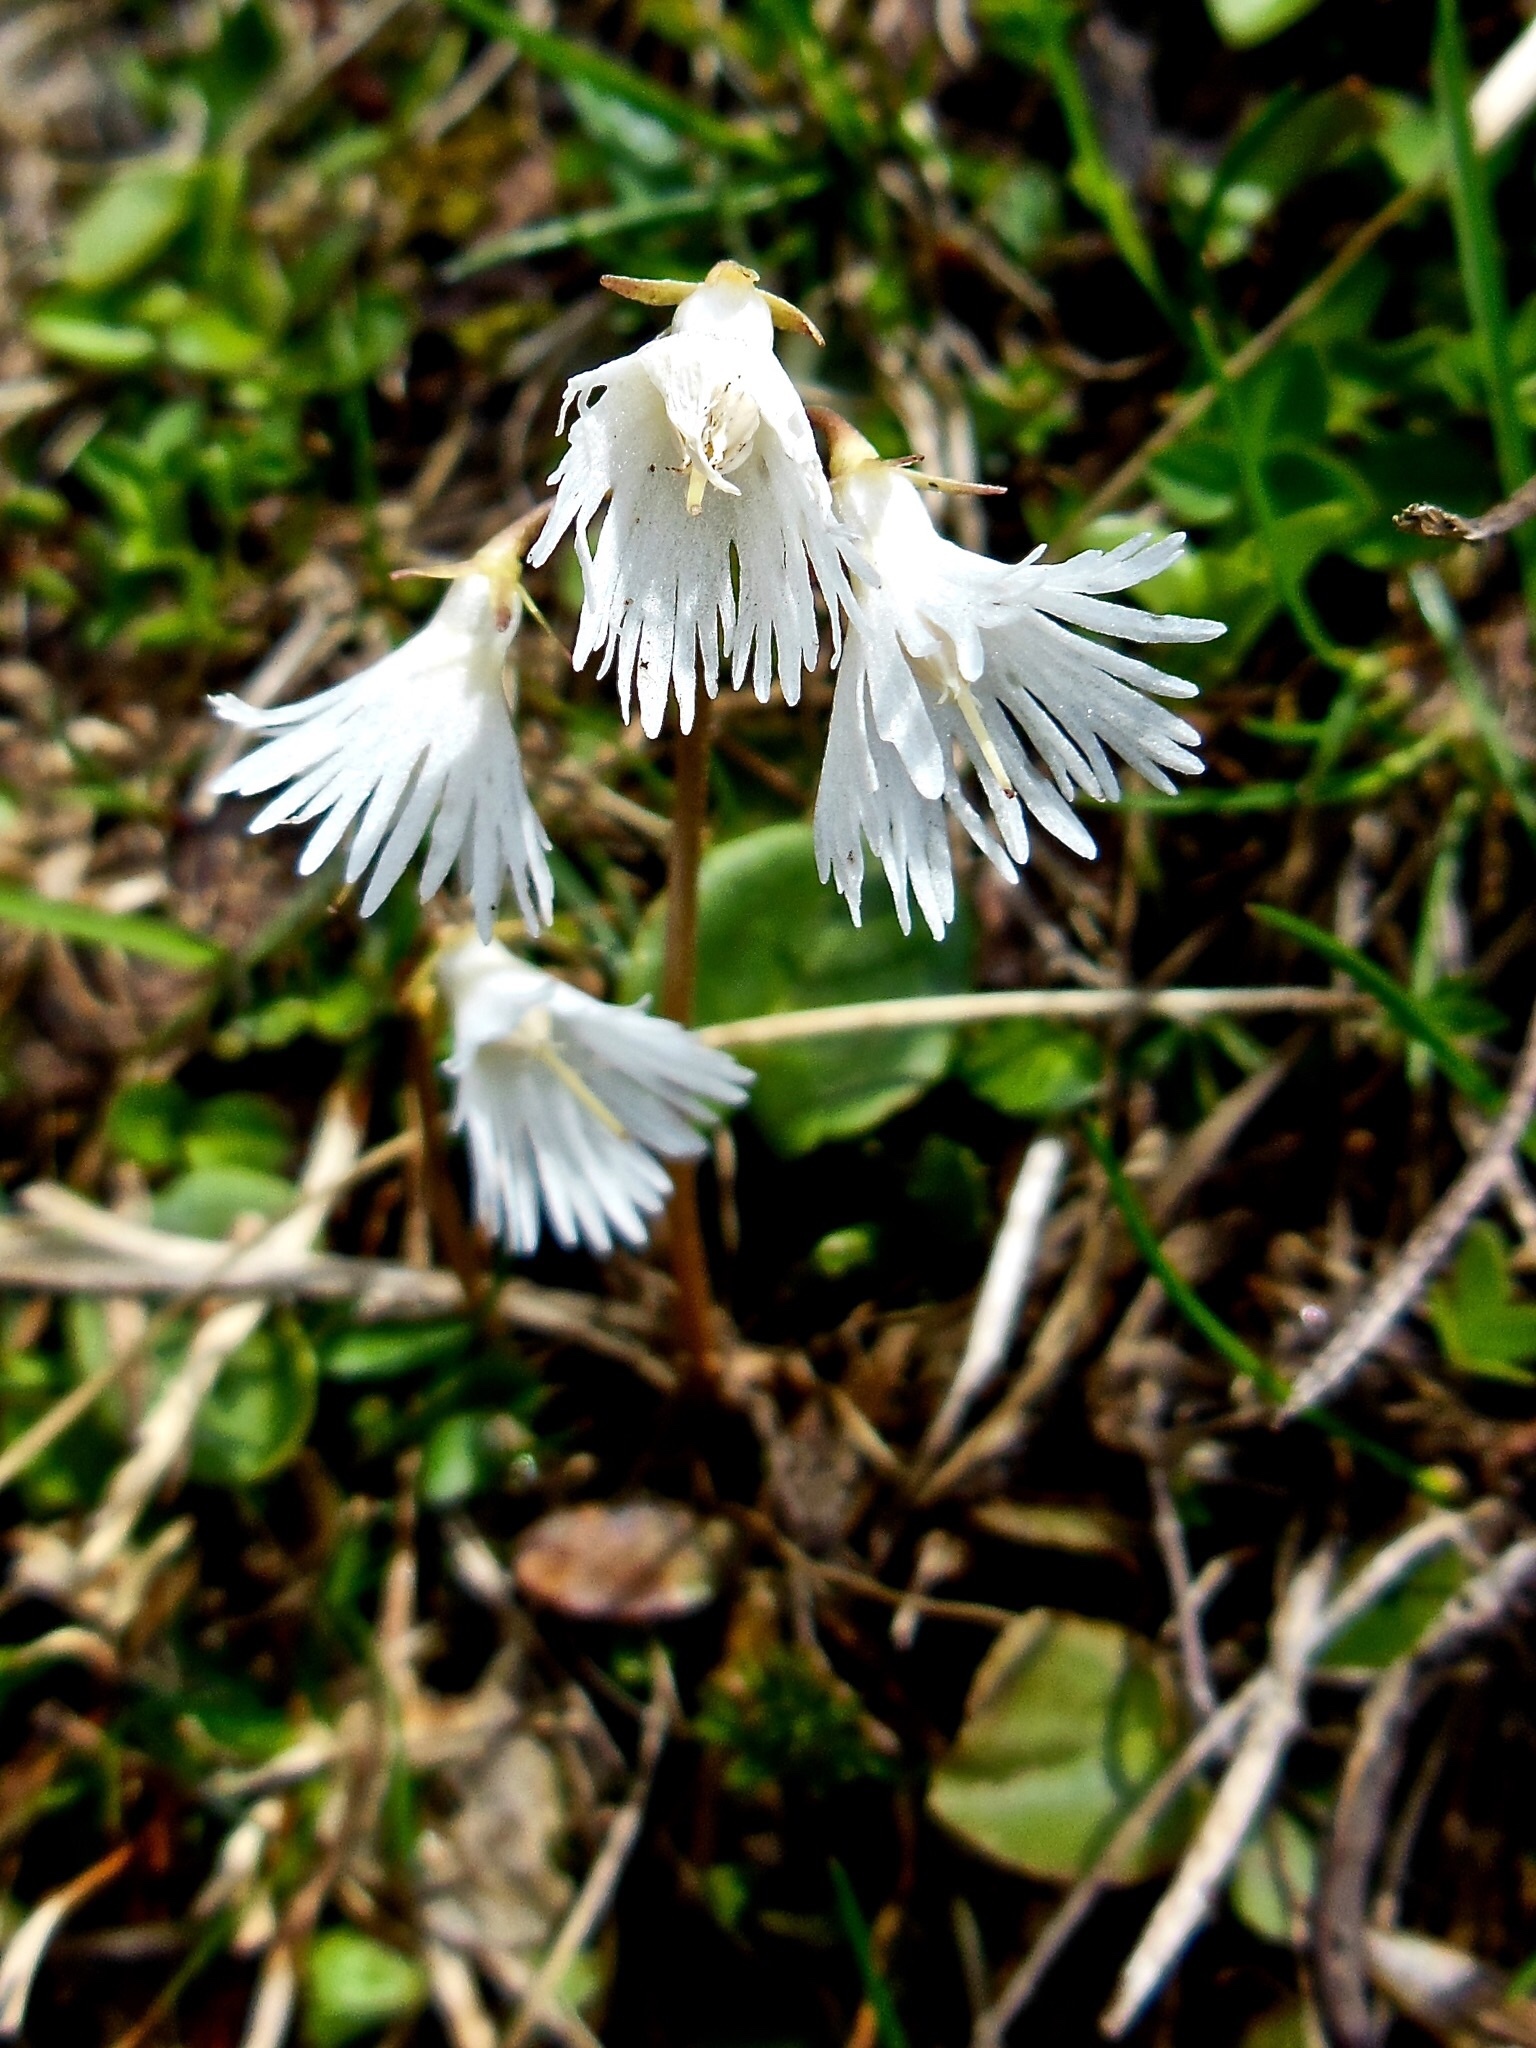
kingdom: Plantae
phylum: Tracheophyta
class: Magnoliopsida
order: Ericales
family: Primulaceae
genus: Soldanella
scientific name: Soldanella alpina
